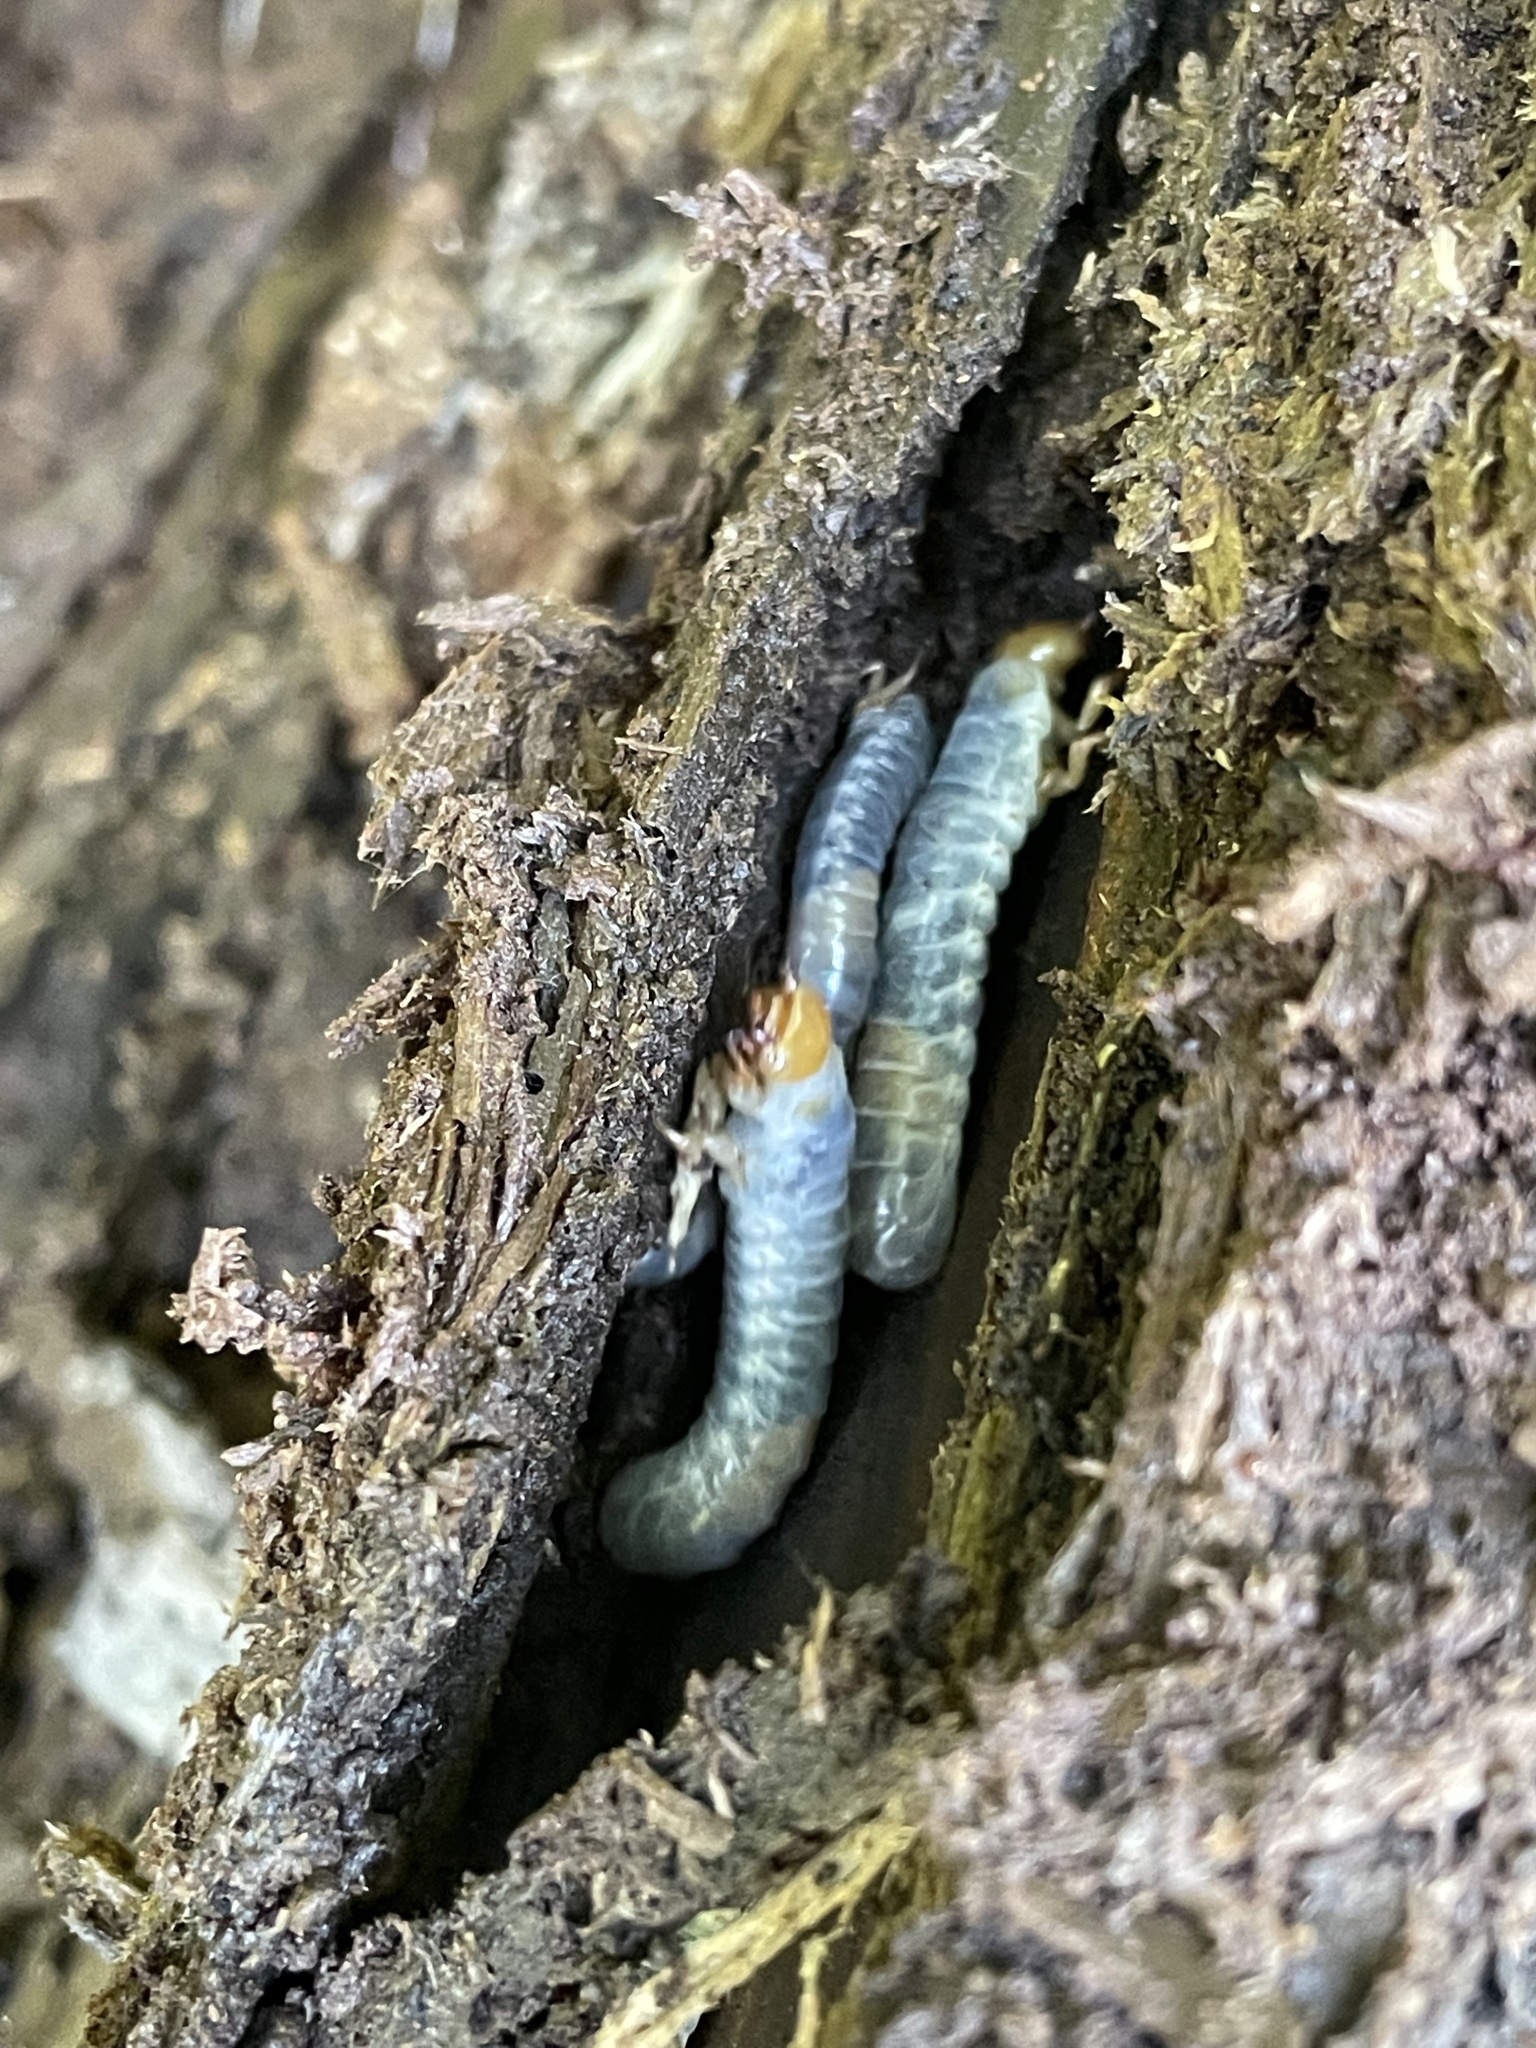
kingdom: Animalia
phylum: Arthropoda
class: Insecta
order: Coleoptera
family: Passalidae
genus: Odontotaenius
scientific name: Odontotaenius disjunctus
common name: Patent leather beetle
